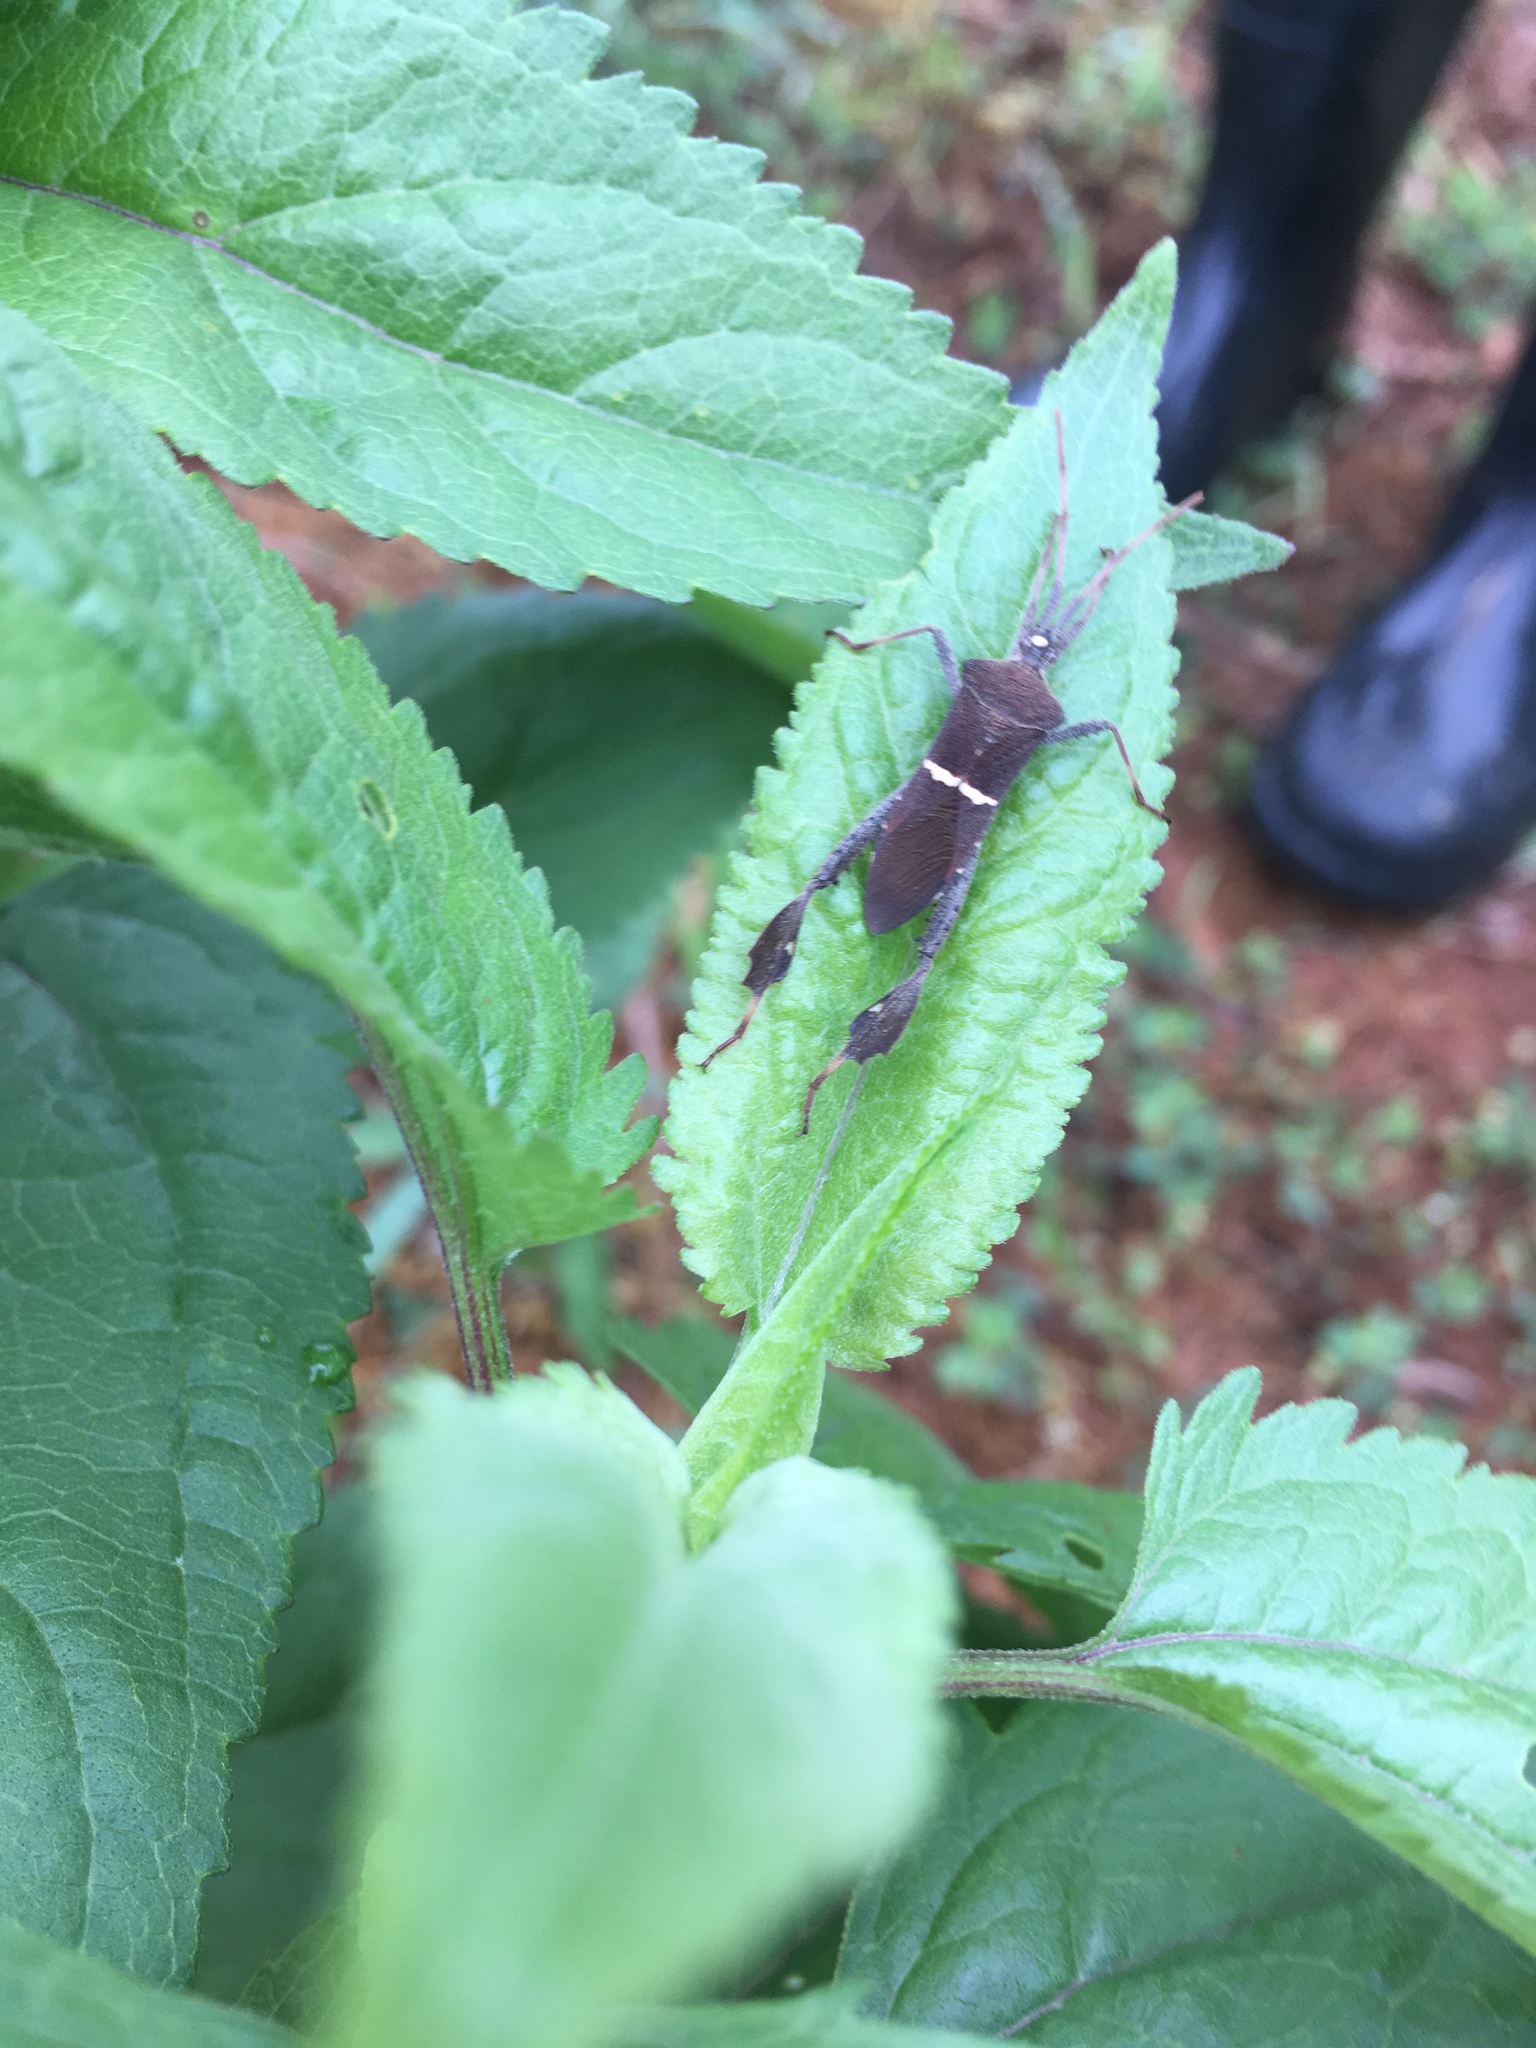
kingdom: Animalia
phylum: Arthropoda
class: Insecta
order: Hemiptera
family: Coreidae
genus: Leptoglossus
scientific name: Leptoglossus phyllopus
